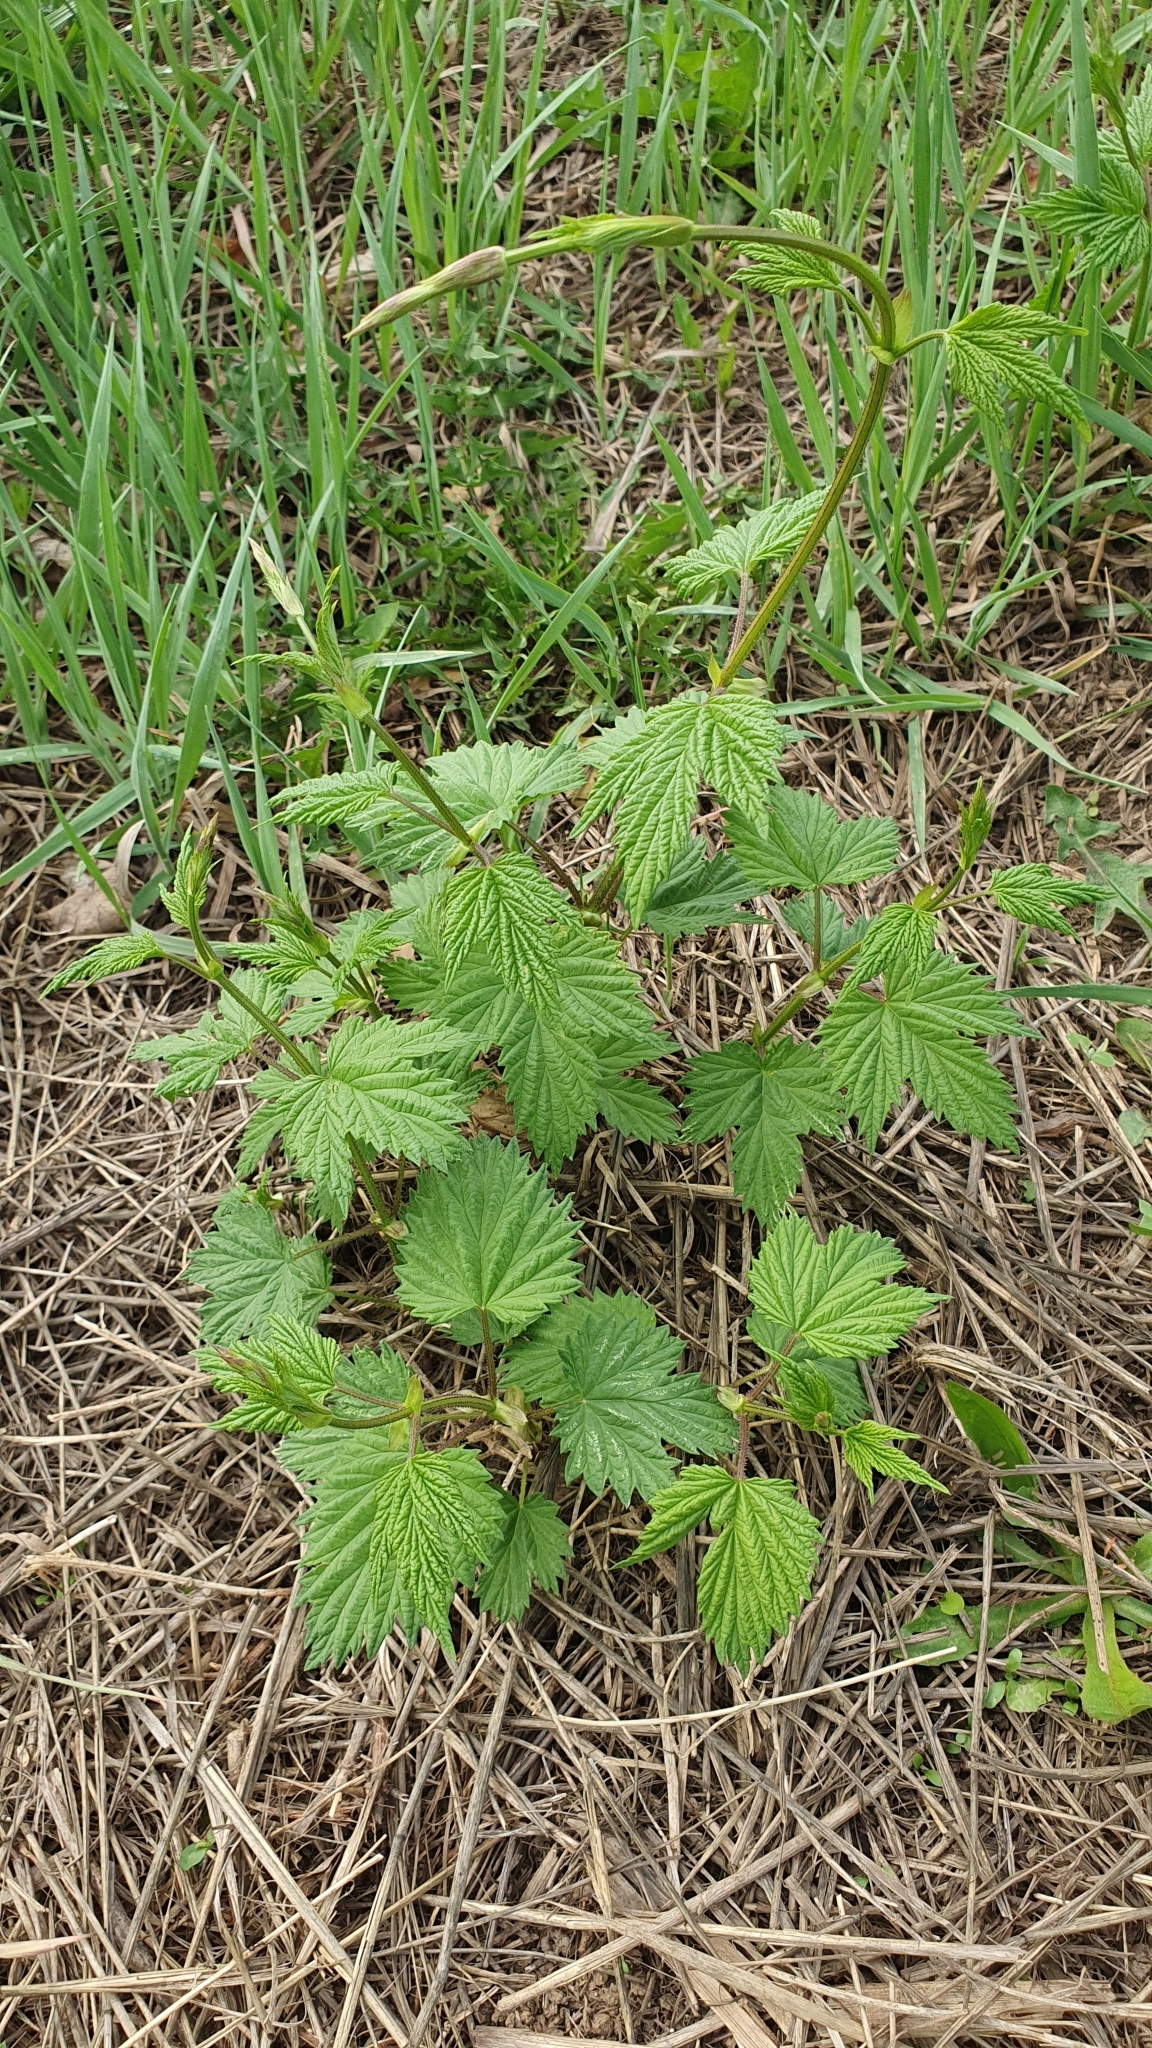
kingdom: Plantae
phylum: Tracheophyta
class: Magnoliopsida
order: Rosales
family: Cannabaceae
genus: Humulus
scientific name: Humulus lupulus
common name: Hop
